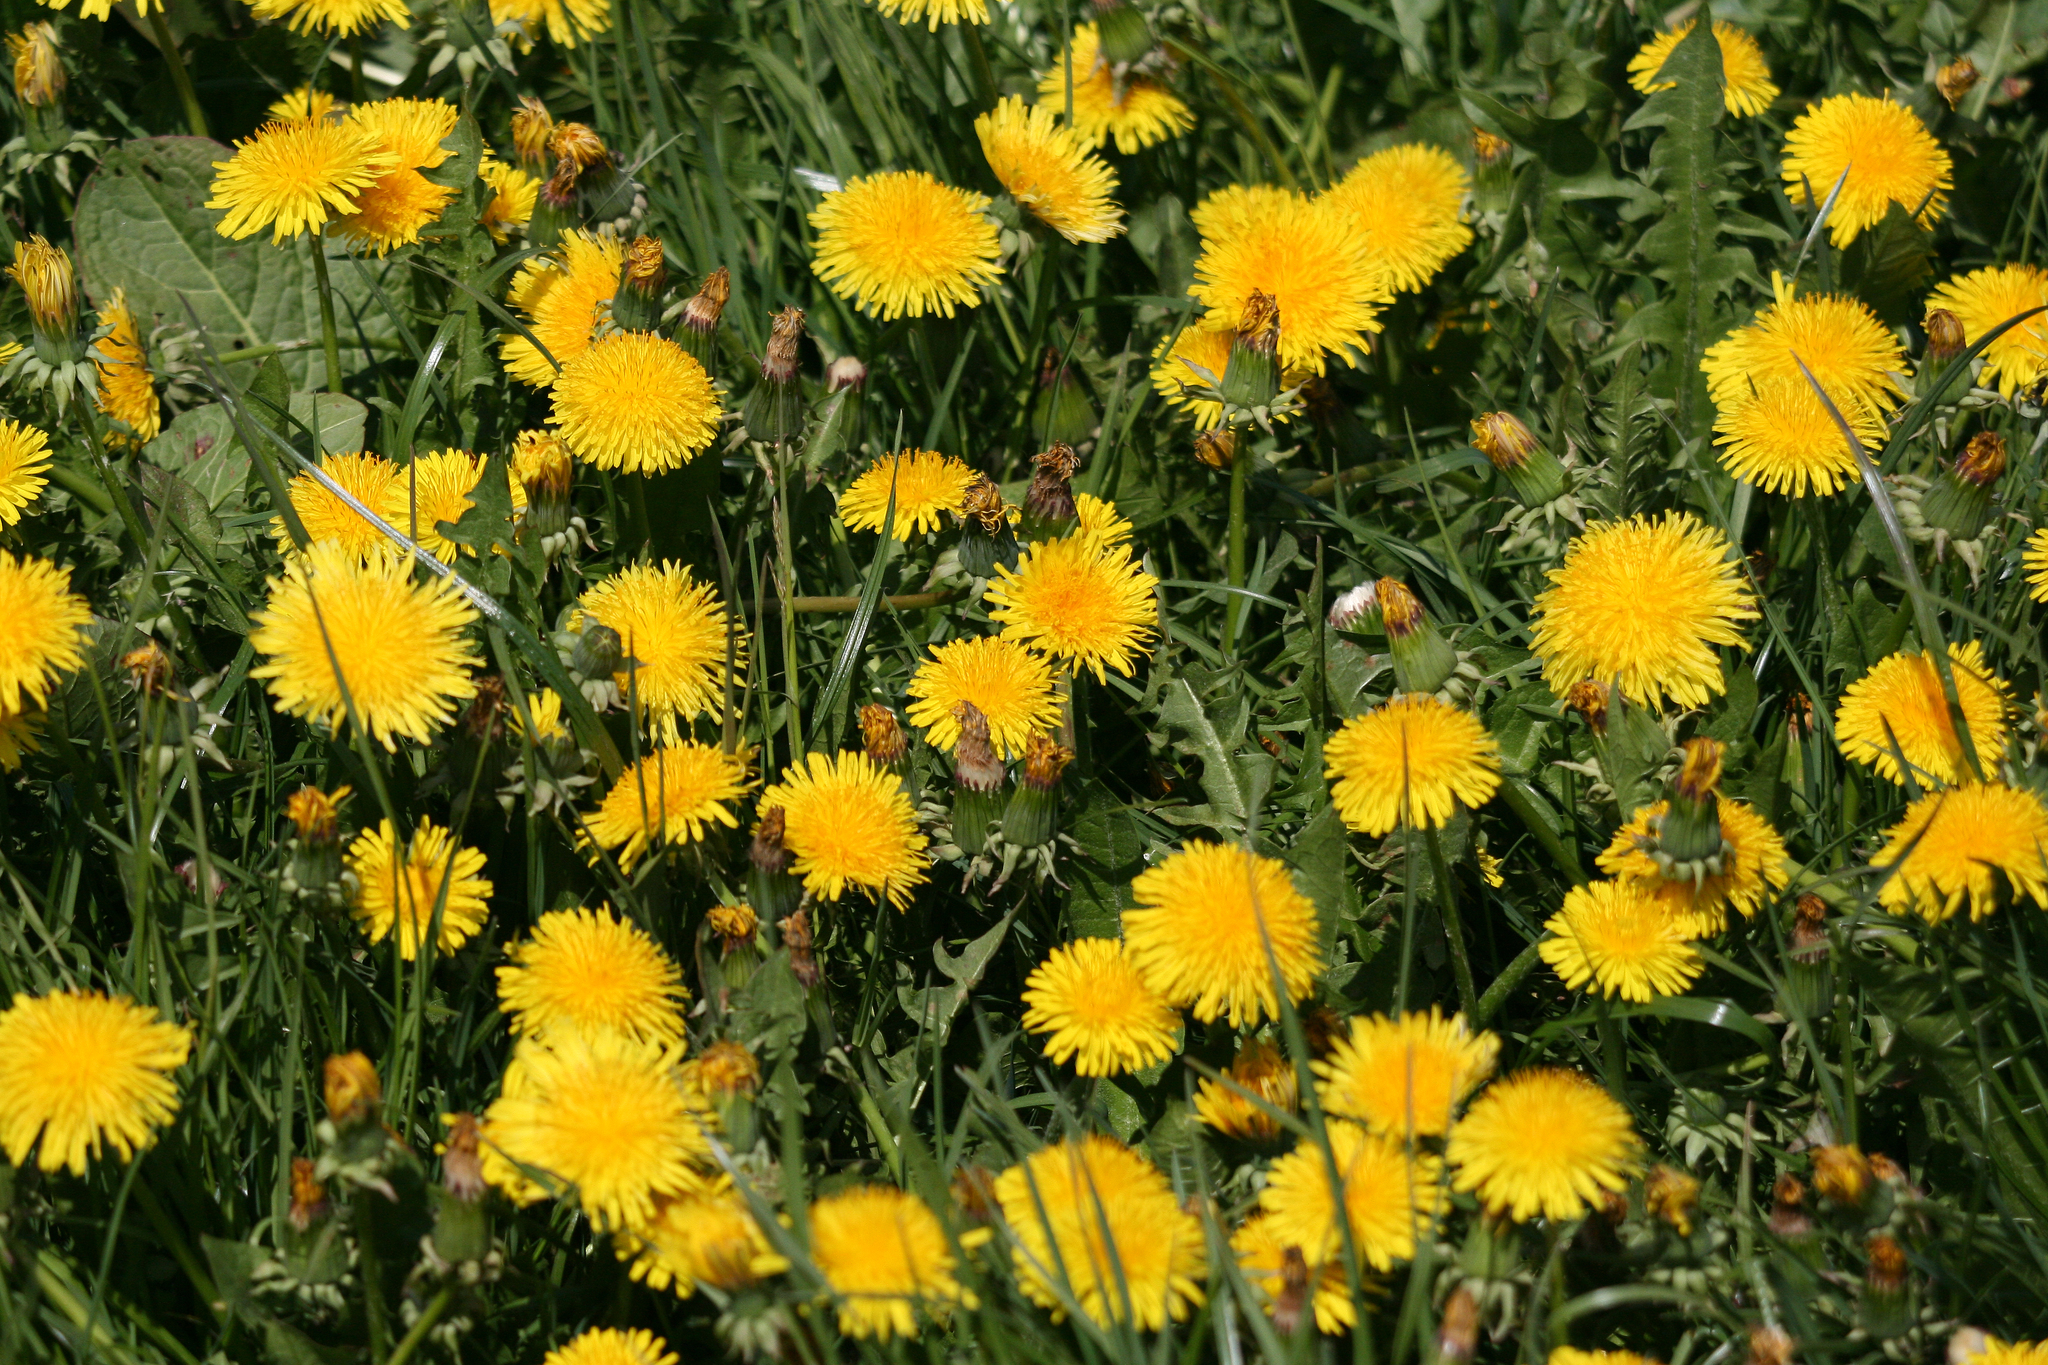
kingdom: Plantae
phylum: Tracheophyta
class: Magnoliopsida
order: Asterales
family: Asteraceae
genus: Taraxacum
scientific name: Taraxacum officinale
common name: Common dandelion
